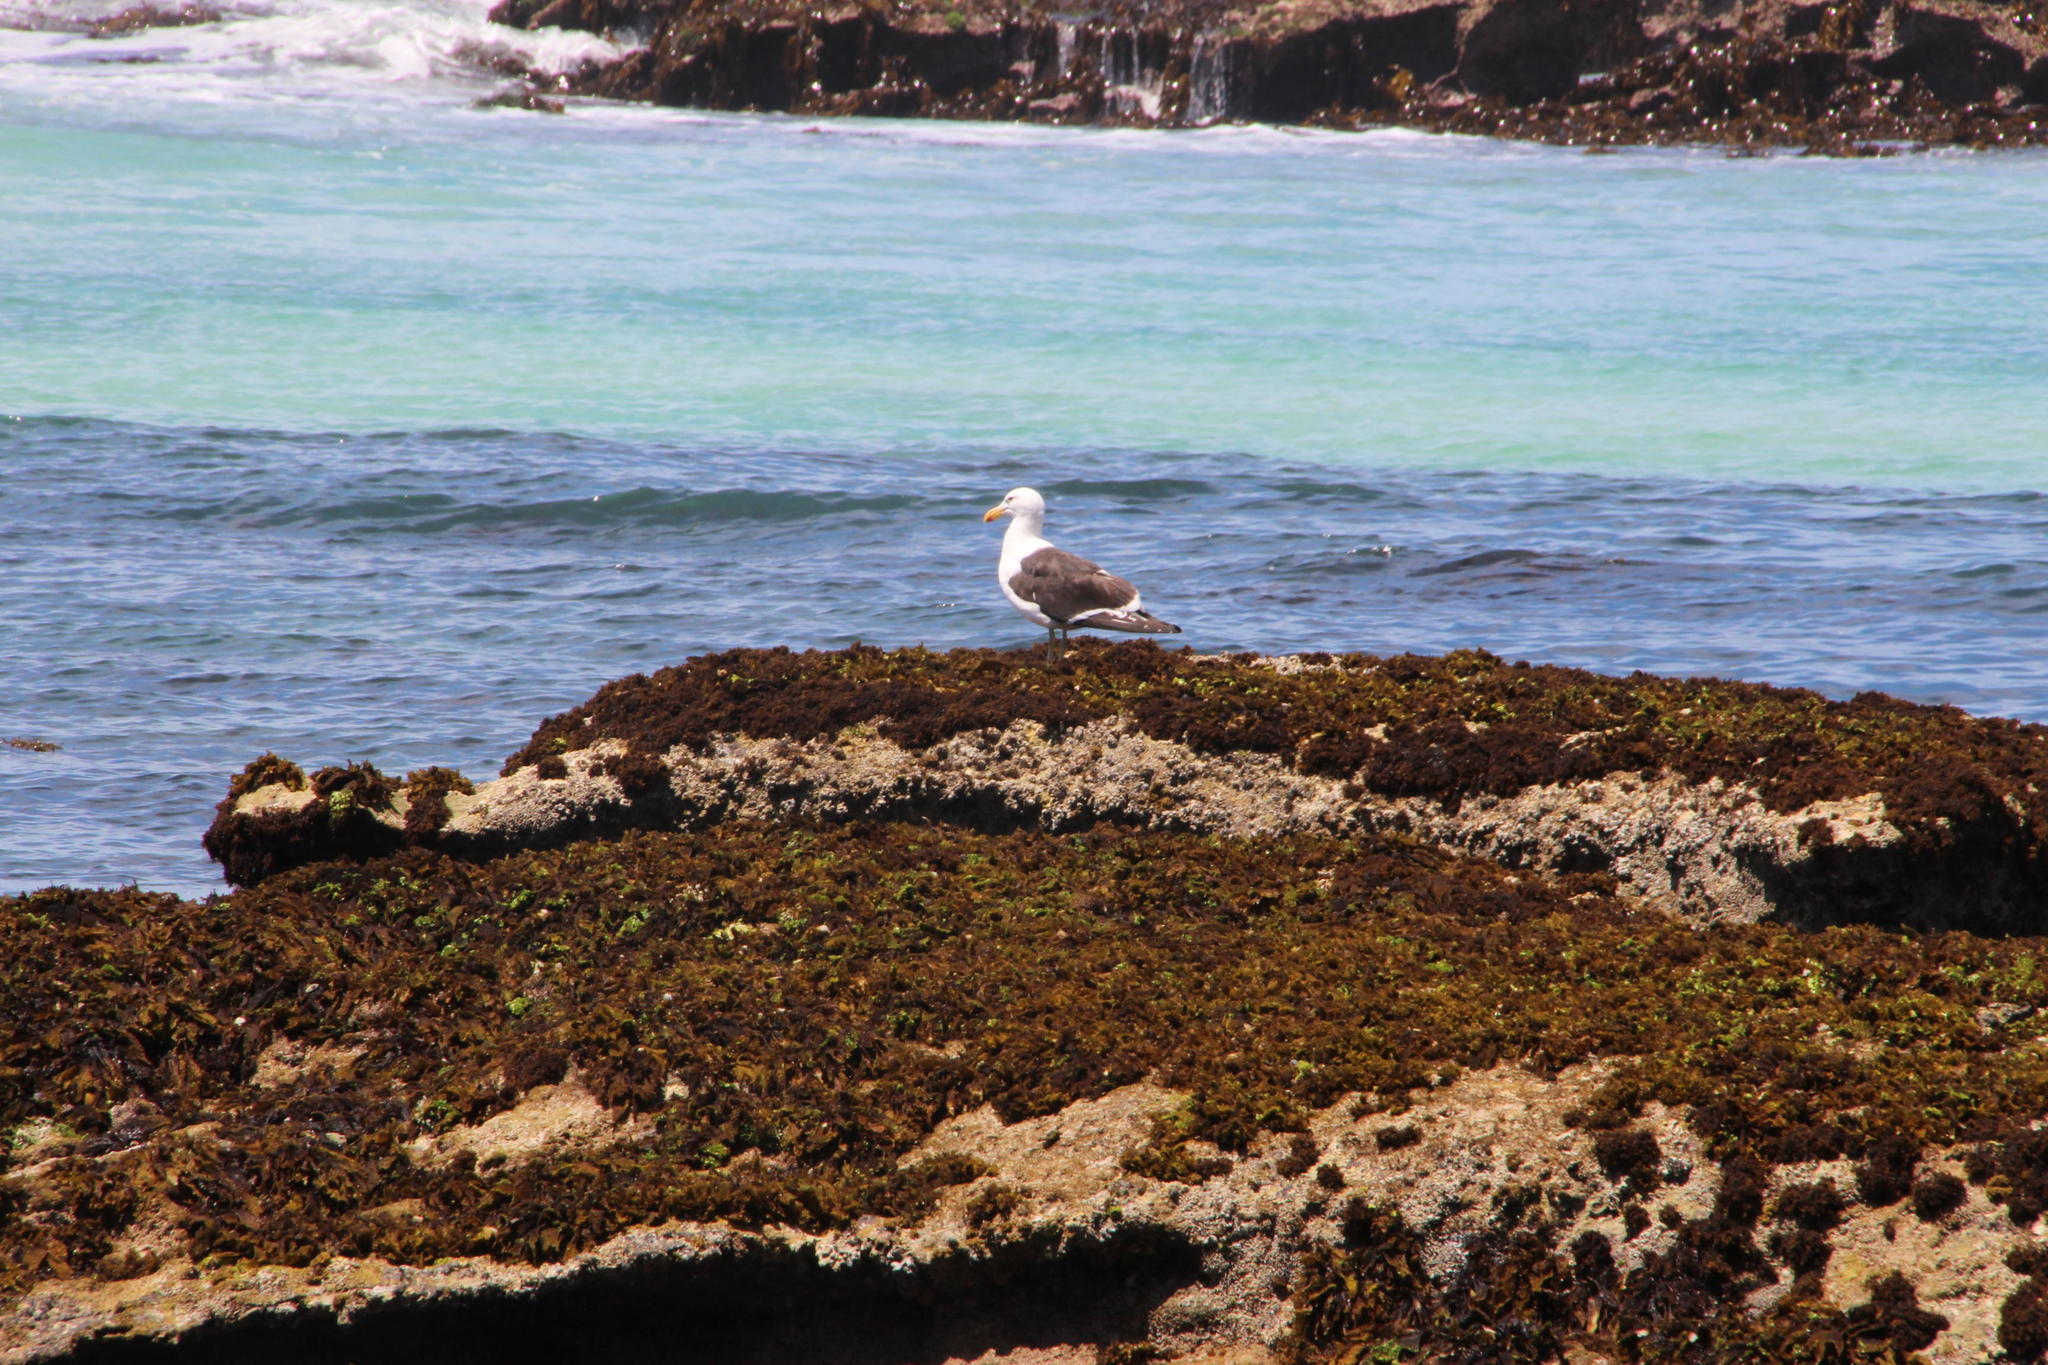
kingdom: Animalia
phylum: Chordata
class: Aves
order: Charadriiformes
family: Laridae
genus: Larus
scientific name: Larus dominicanus
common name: Kelp gull
